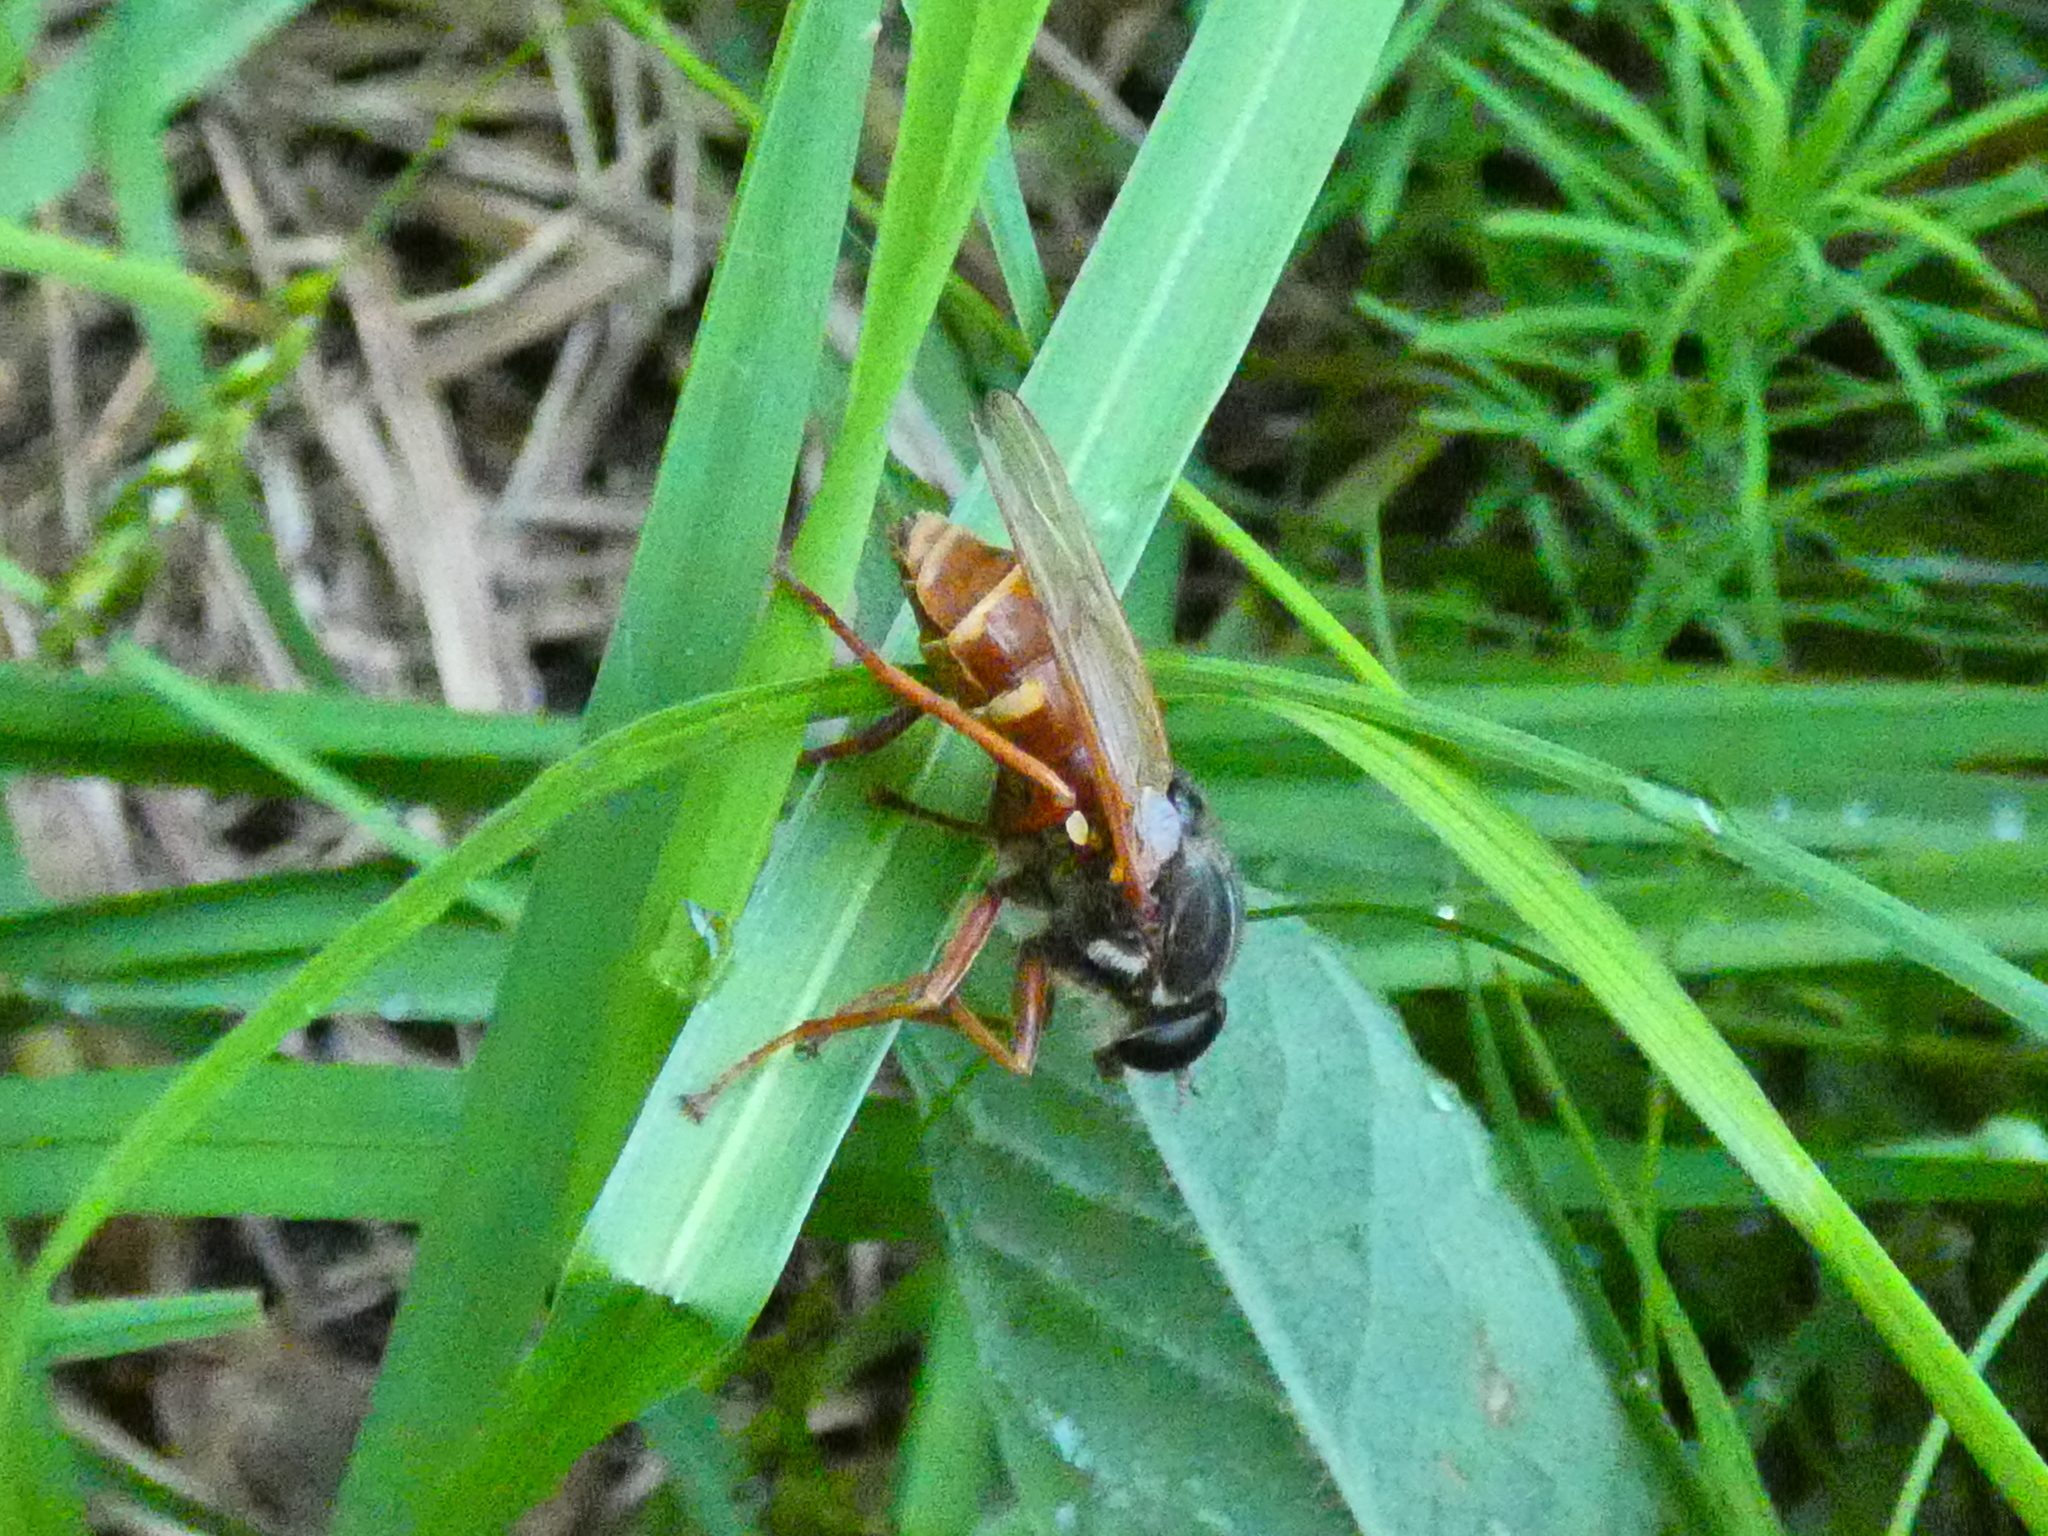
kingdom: Animalia
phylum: Arthropoda
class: Insecta
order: Diptera
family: Xylophagidae
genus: Coenomyia
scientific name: Coenomyia ferruginea
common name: Stink fly
